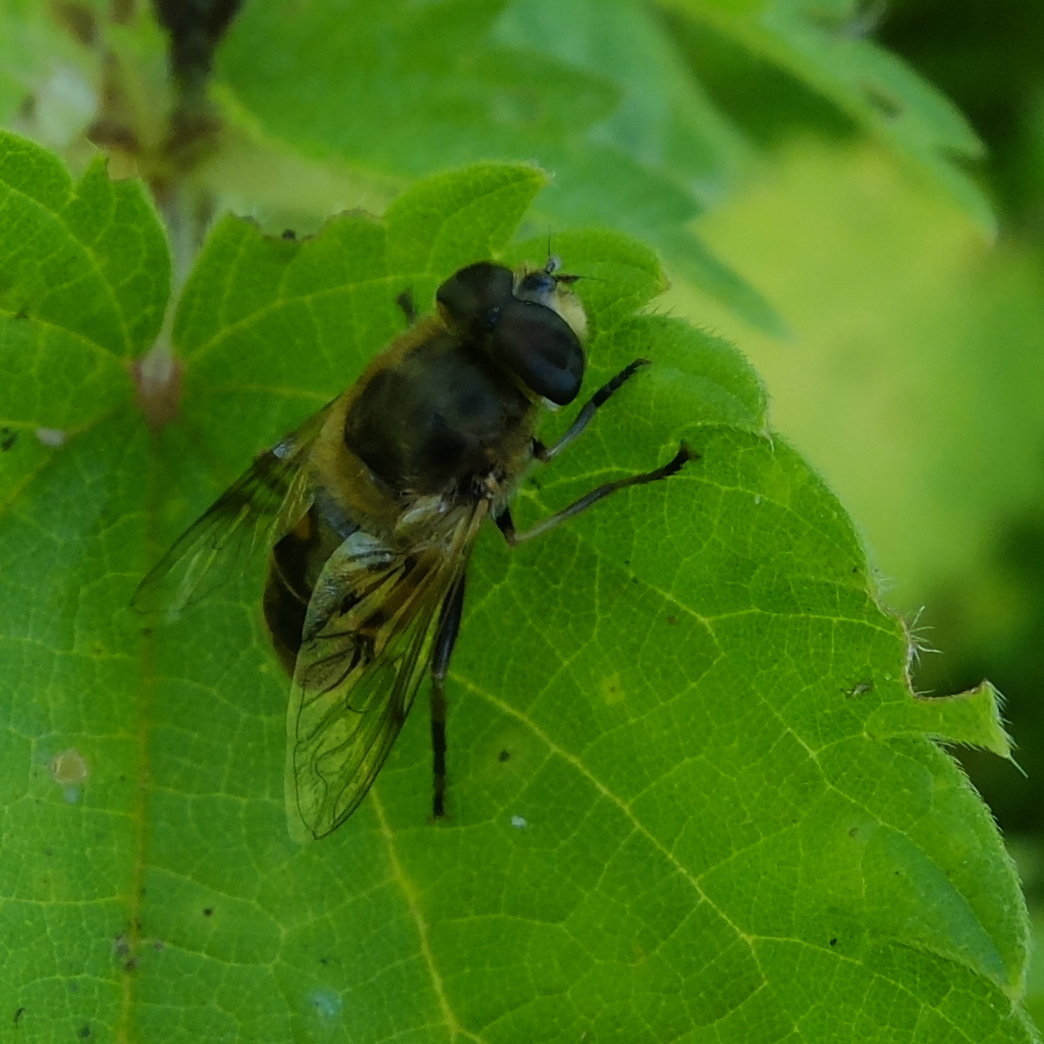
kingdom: Animalia
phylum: Arthropoda
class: Insecta
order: Diptera
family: Syrphidae
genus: Eristalis
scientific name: Eristalis tenax
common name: Drone fly
